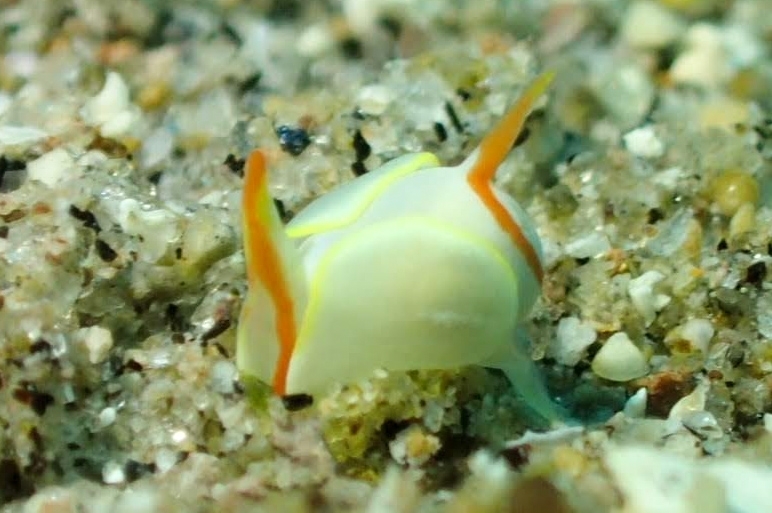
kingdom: Animalia
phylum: Mollusca
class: Gastropoda
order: Cephalaspidea
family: Gastropteridae
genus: Siphopteron
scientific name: Siphopteron makisig
